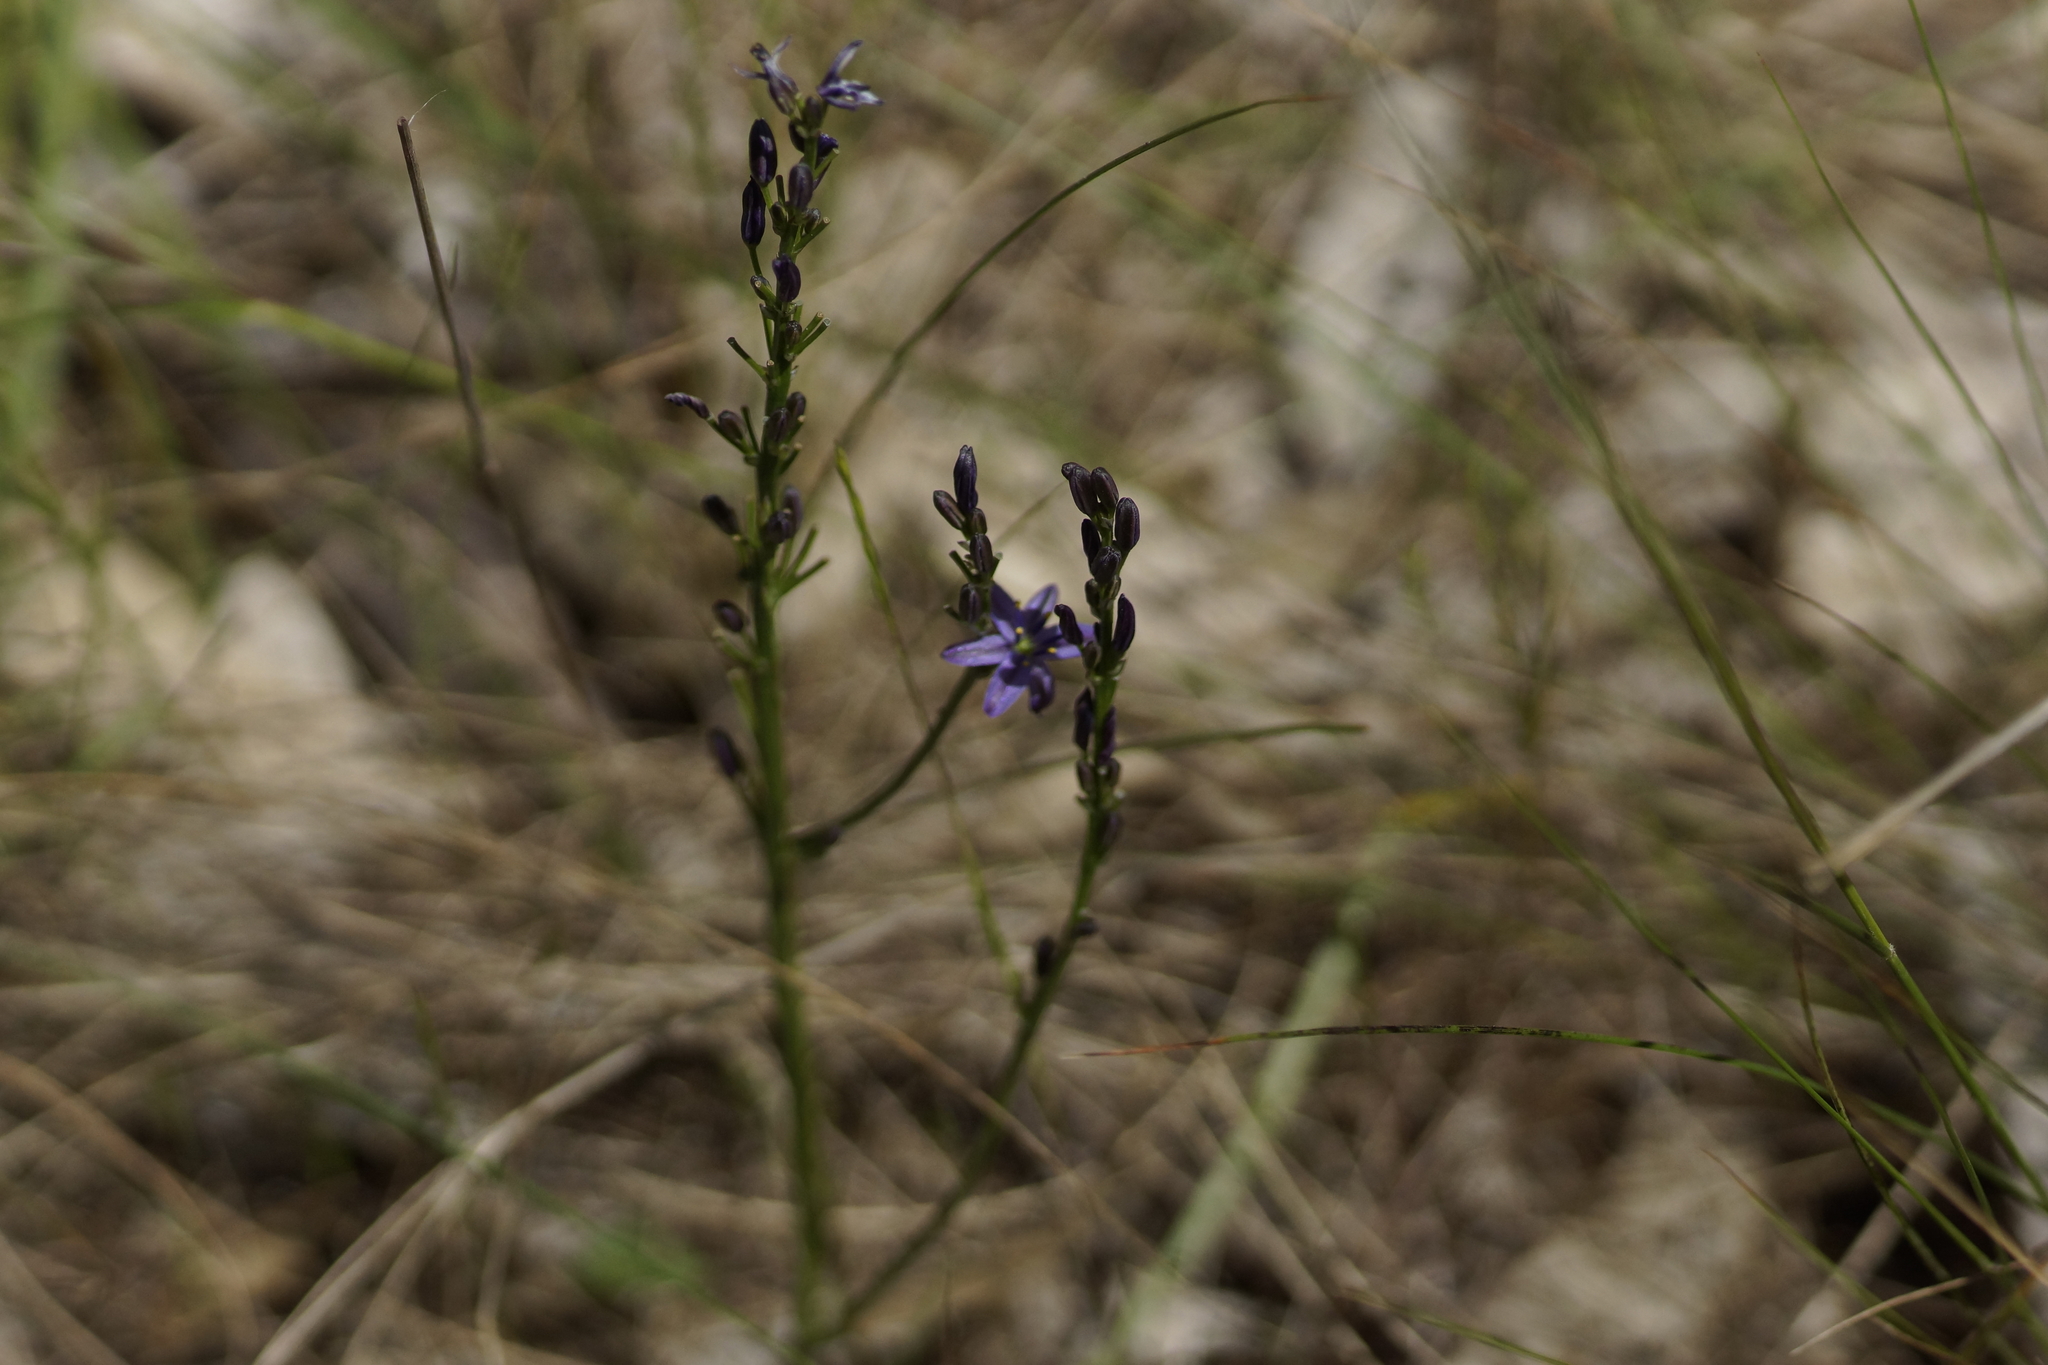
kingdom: Plantae
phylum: Tracheophyta
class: Liliopsida
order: Asparagales
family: Asphodelaceae
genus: Caesia
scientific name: Caesia calliantha
